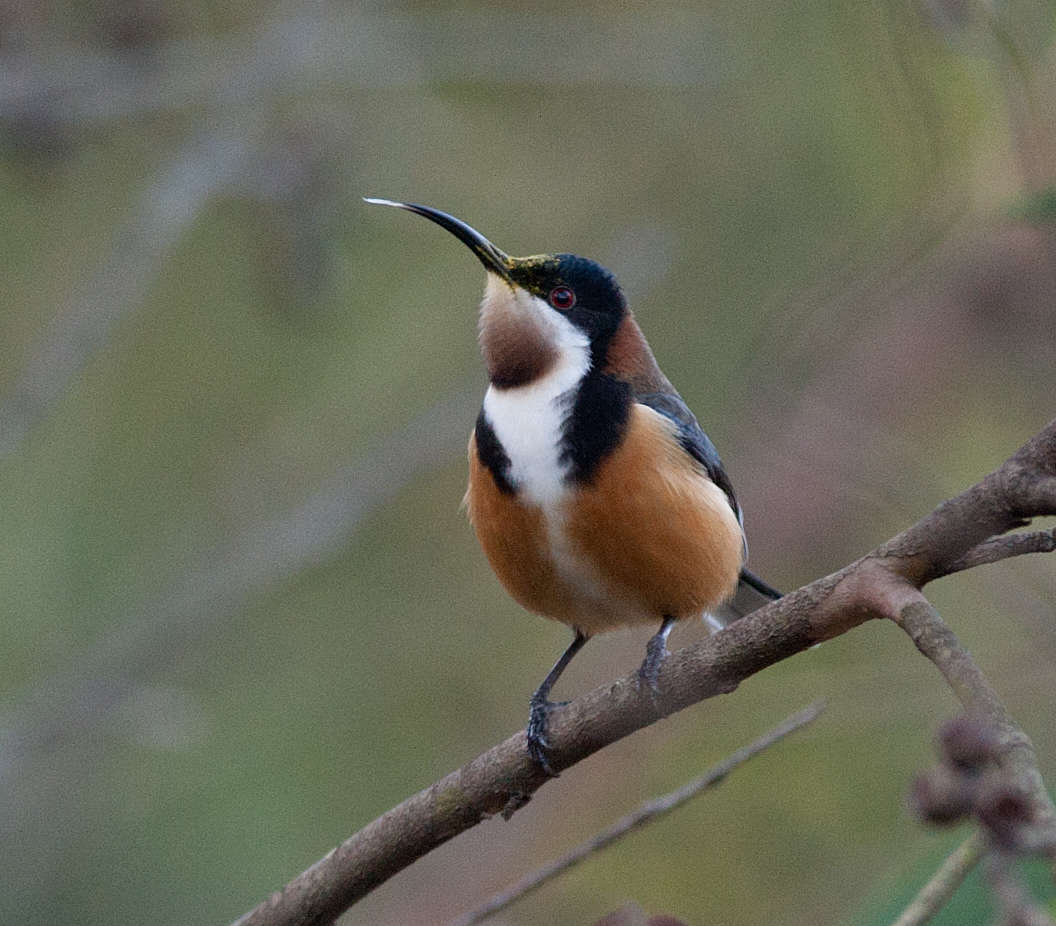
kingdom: Animalia
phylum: Chordata
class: Aves
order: Passeriformes
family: Meliphagidae
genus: Acanthorhynchus
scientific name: Acanthorhynchus tenuirostris
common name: Eastern spinebill
